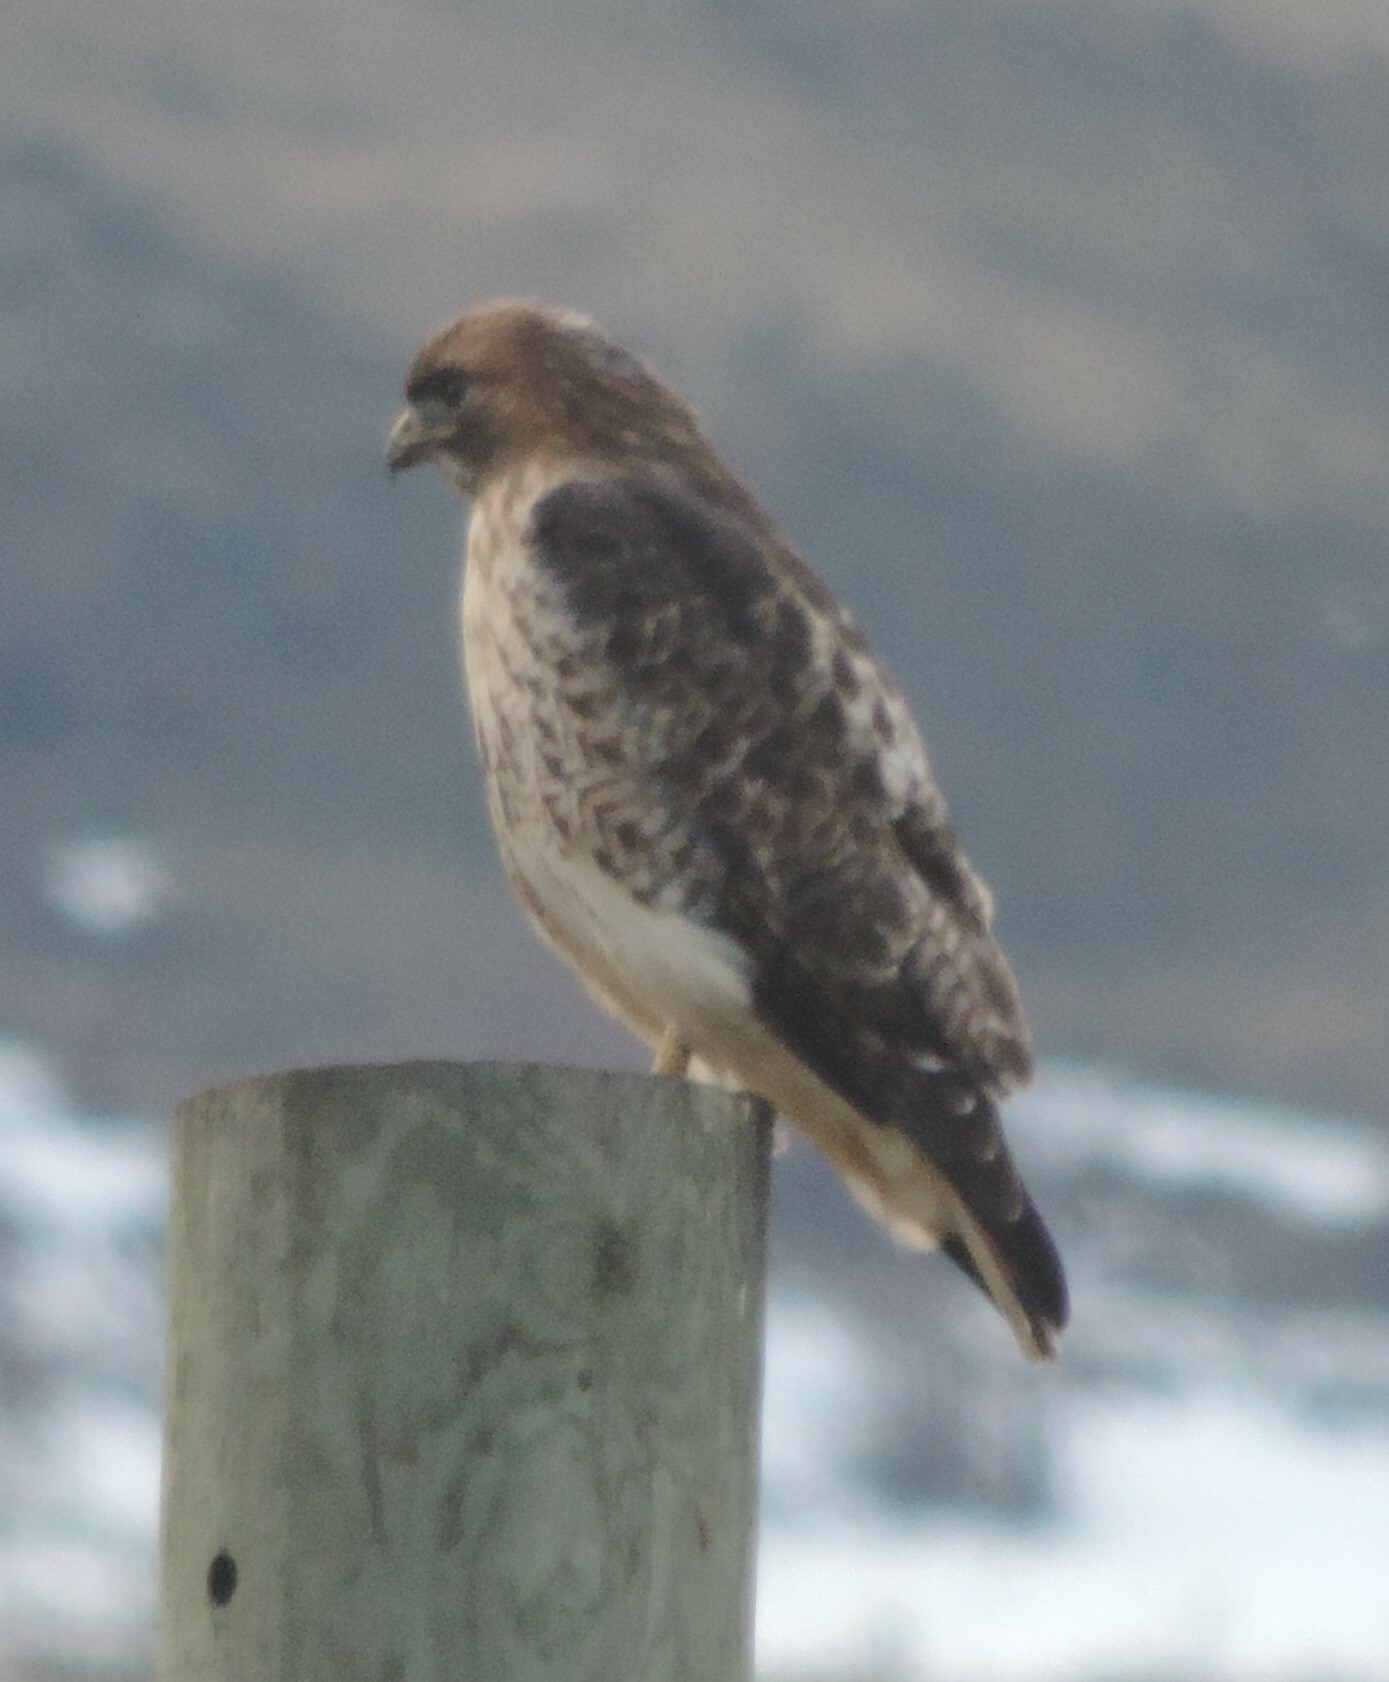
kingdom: Animalia
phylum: Chordata
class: Aves
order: Accipitriformes
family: Accipitridae
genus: Buteo
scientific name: Buteo jamaicensis
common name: Red-tailed hawk
